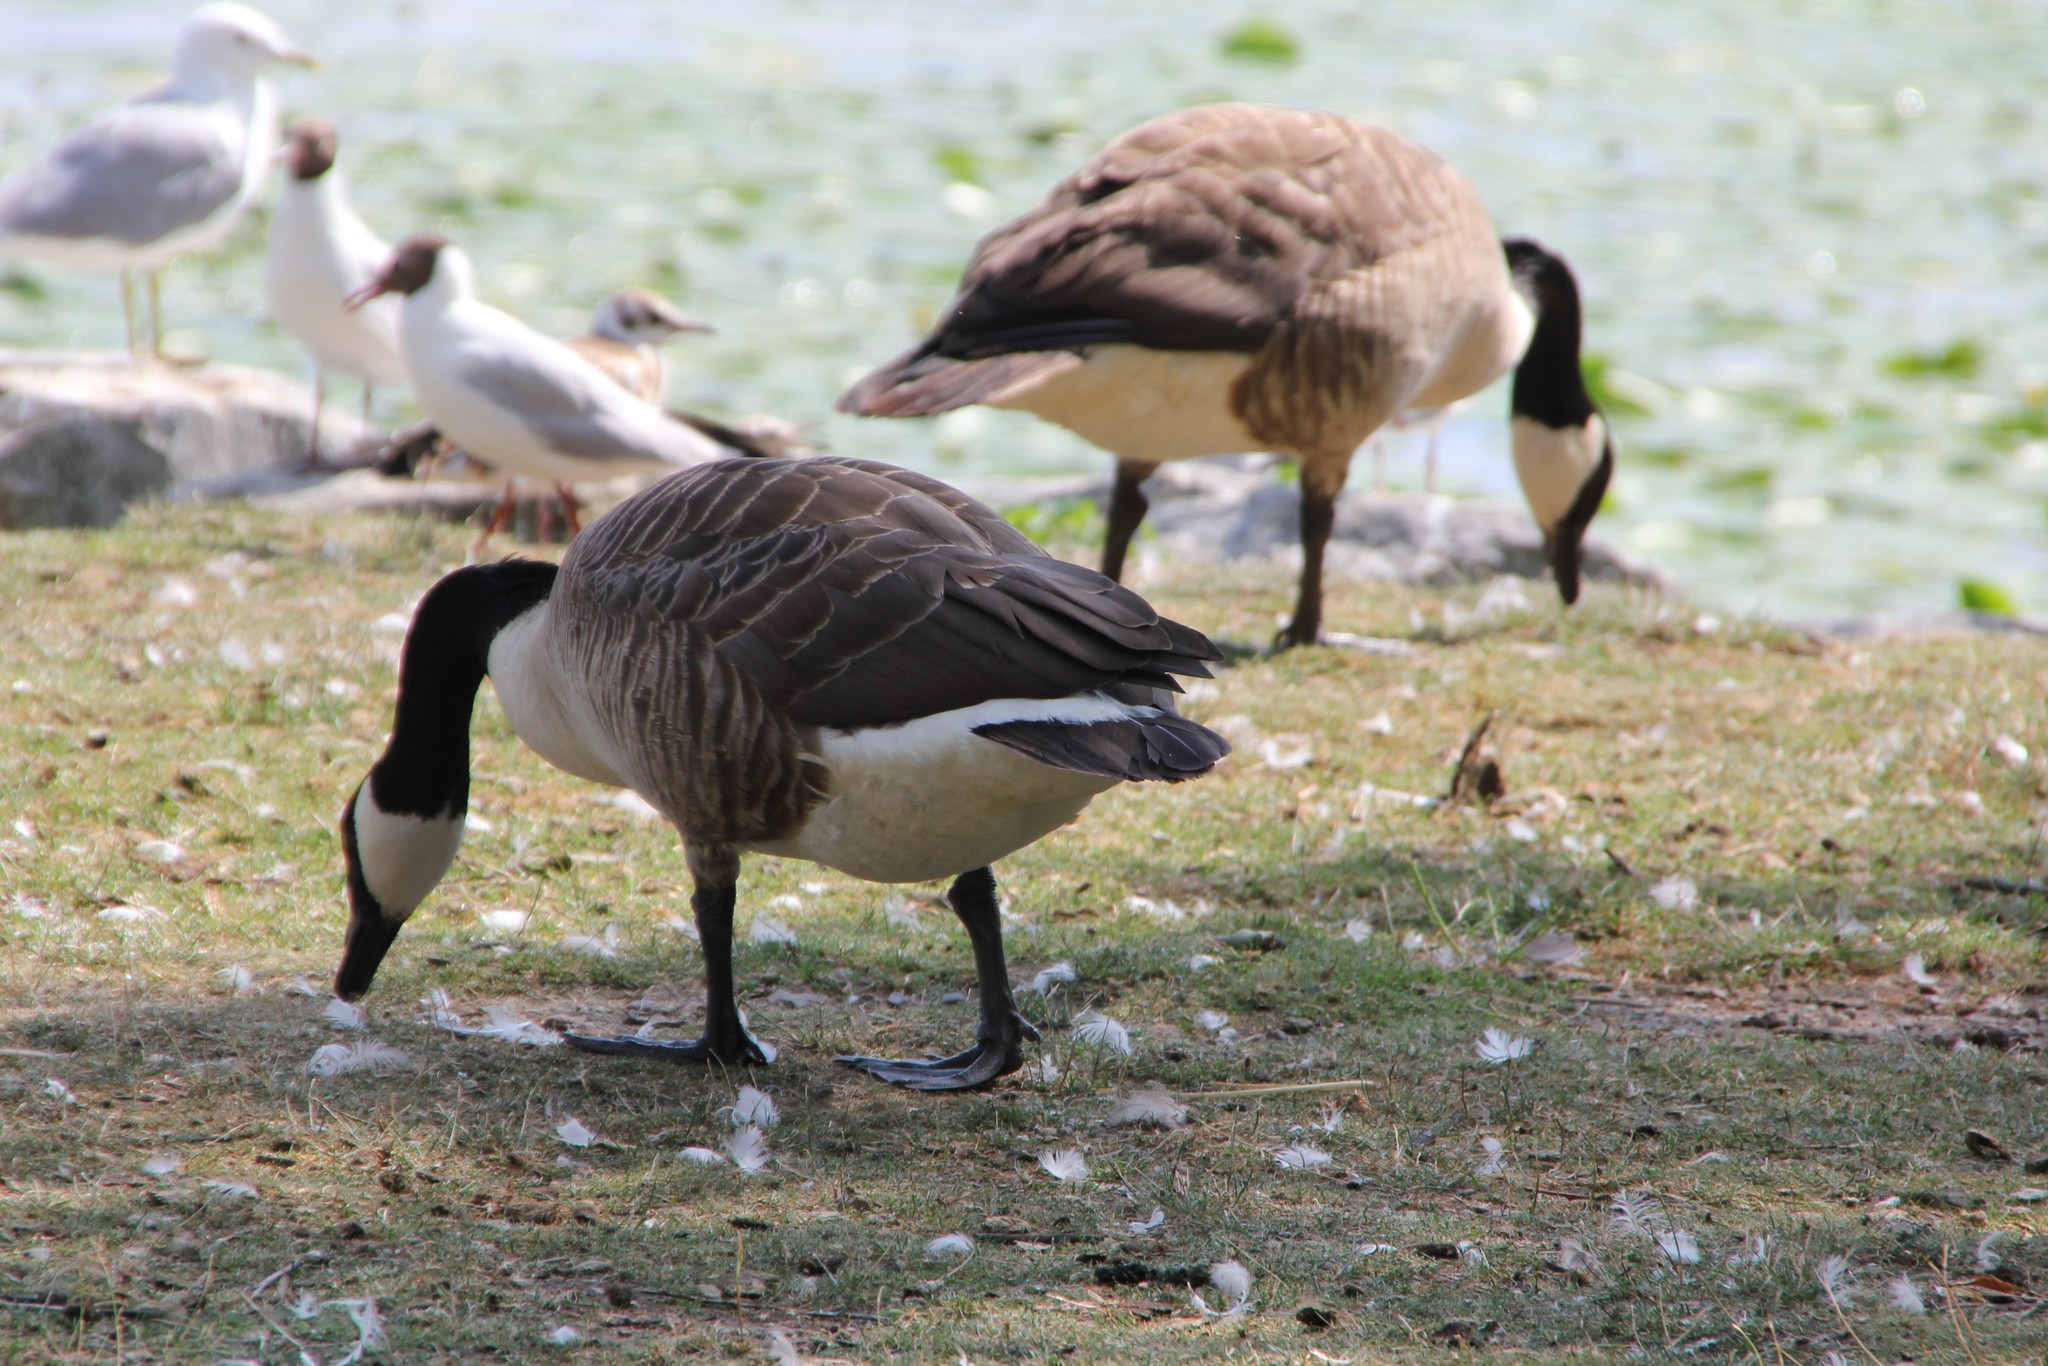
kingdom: Animalia
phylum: Chordata
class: Aves
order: Anseriformes
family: Anatidae
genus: Branta
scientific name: Branta canadensis
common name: Canada goose
